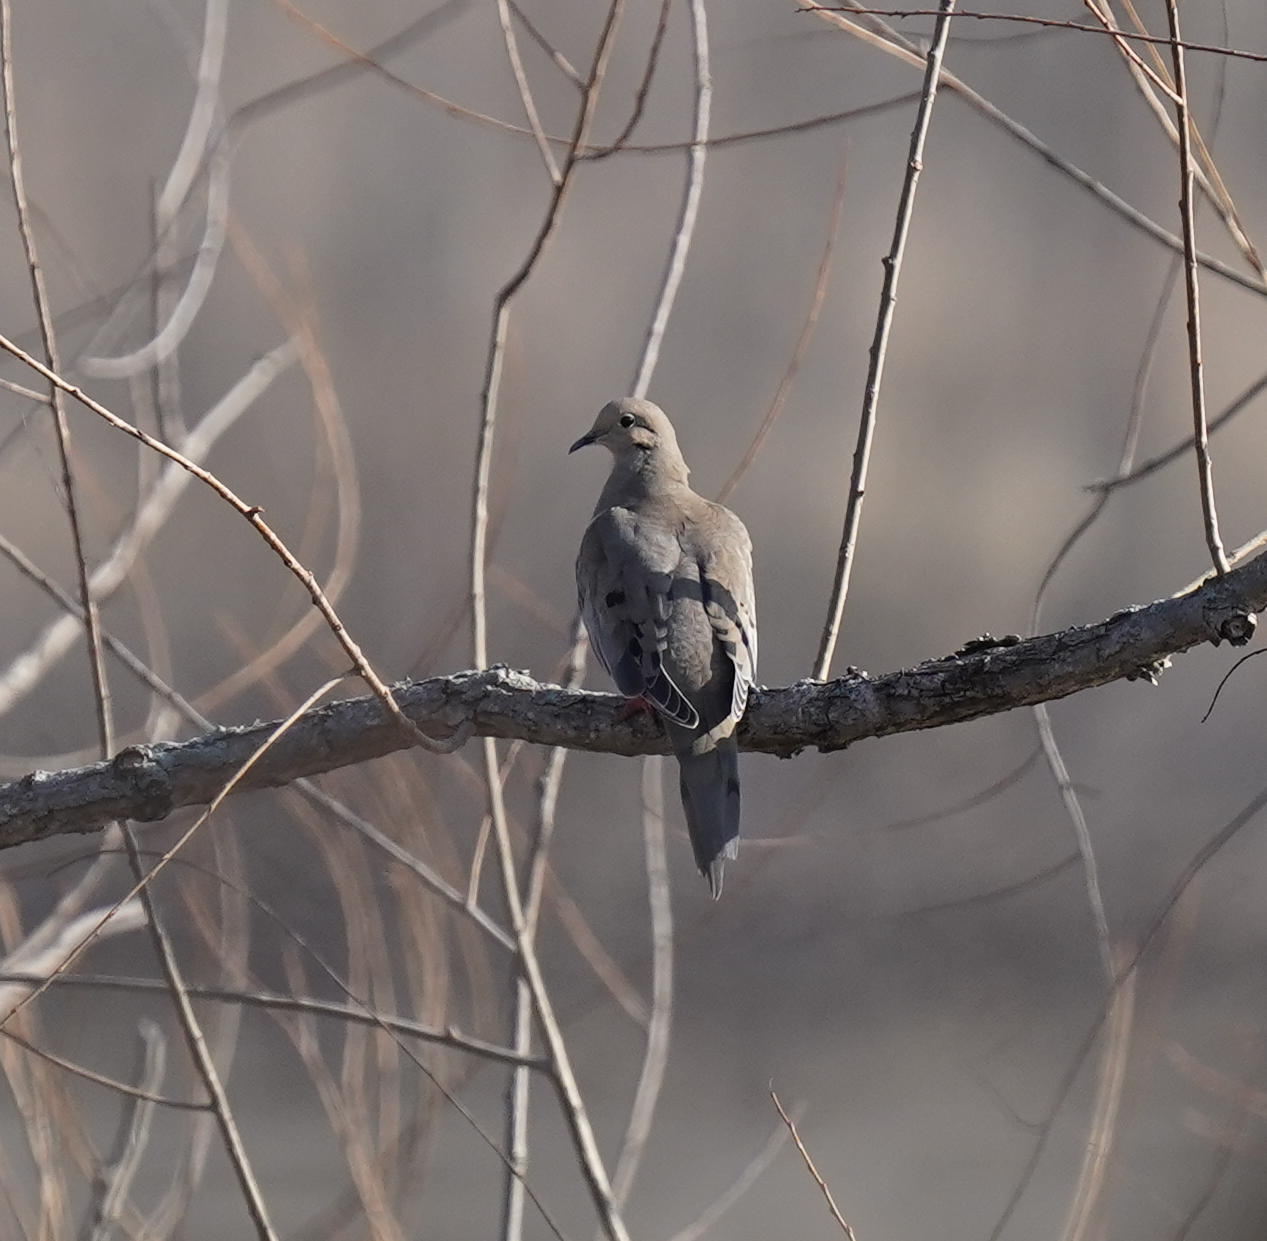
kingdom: Animalia
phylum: Chordata
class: Aves
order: Columbiformes
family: Columbidae
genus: Zenaida
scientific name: Zenaida macroura
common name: Mourning dove
